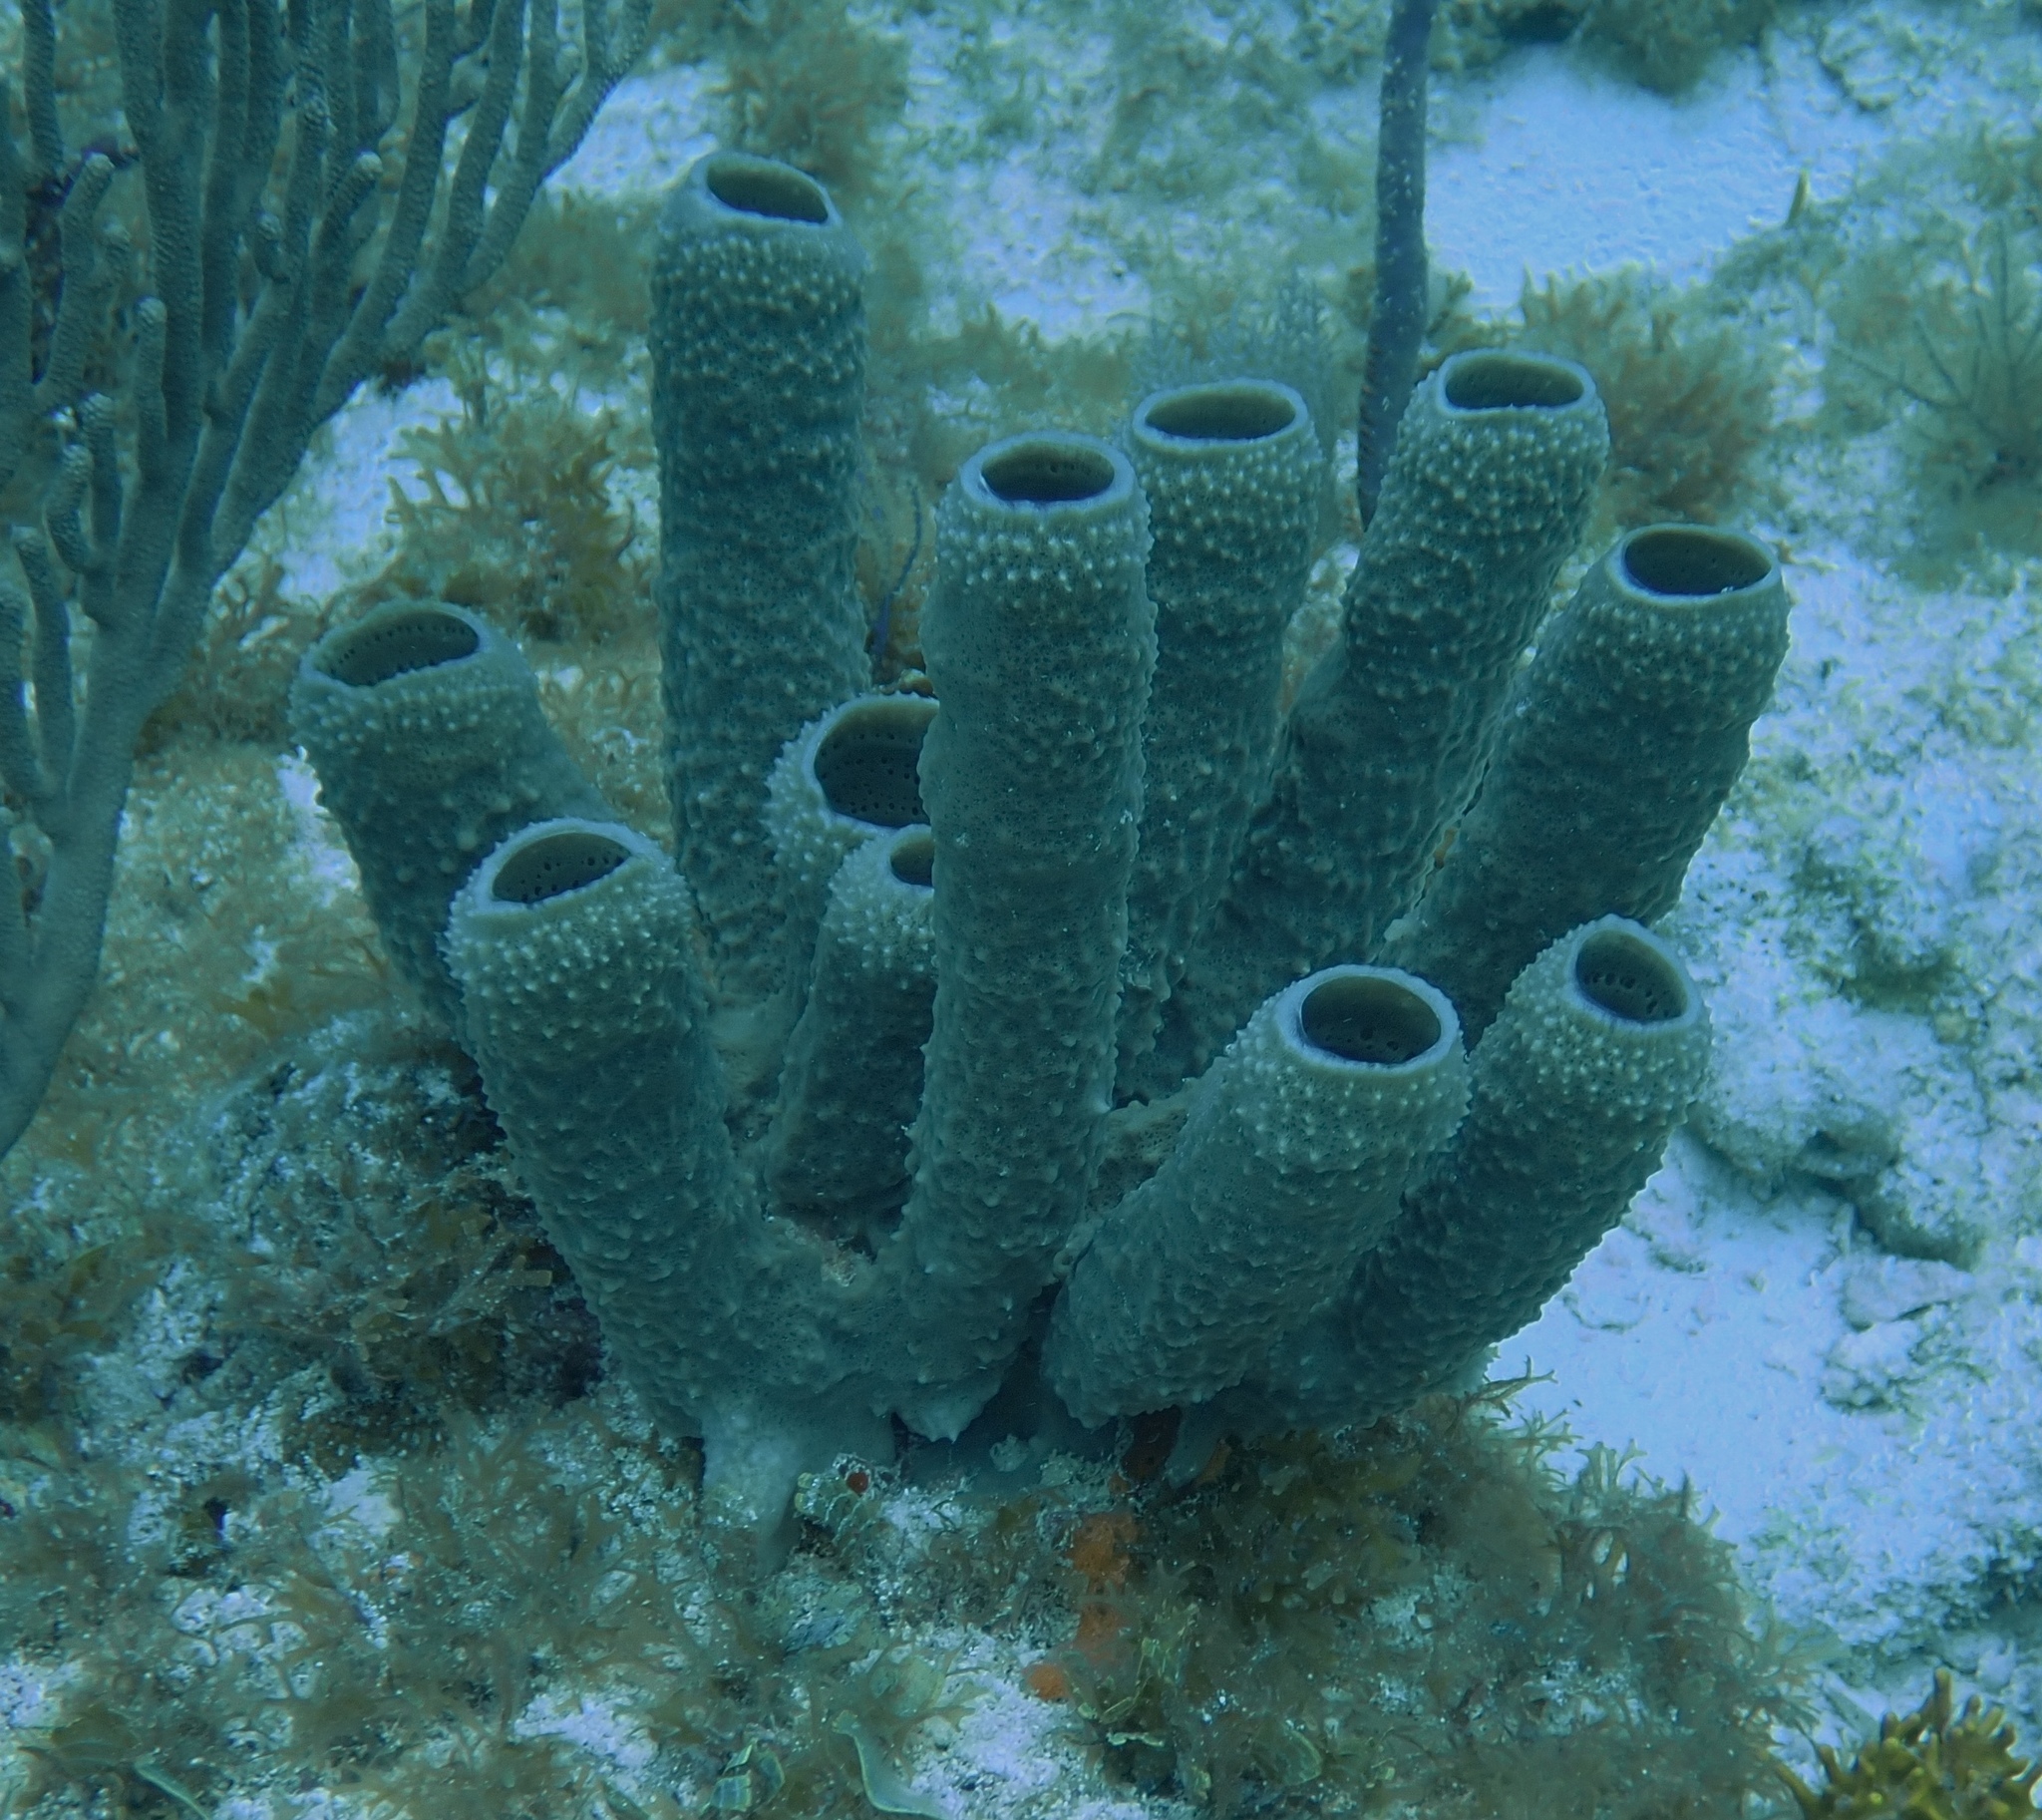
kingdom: Animalia
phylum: Porifera
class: Demospongiae
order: Haplosclerida
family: Callyspongiidae
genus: Callyspongia
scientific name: Callyspongia aculeata
